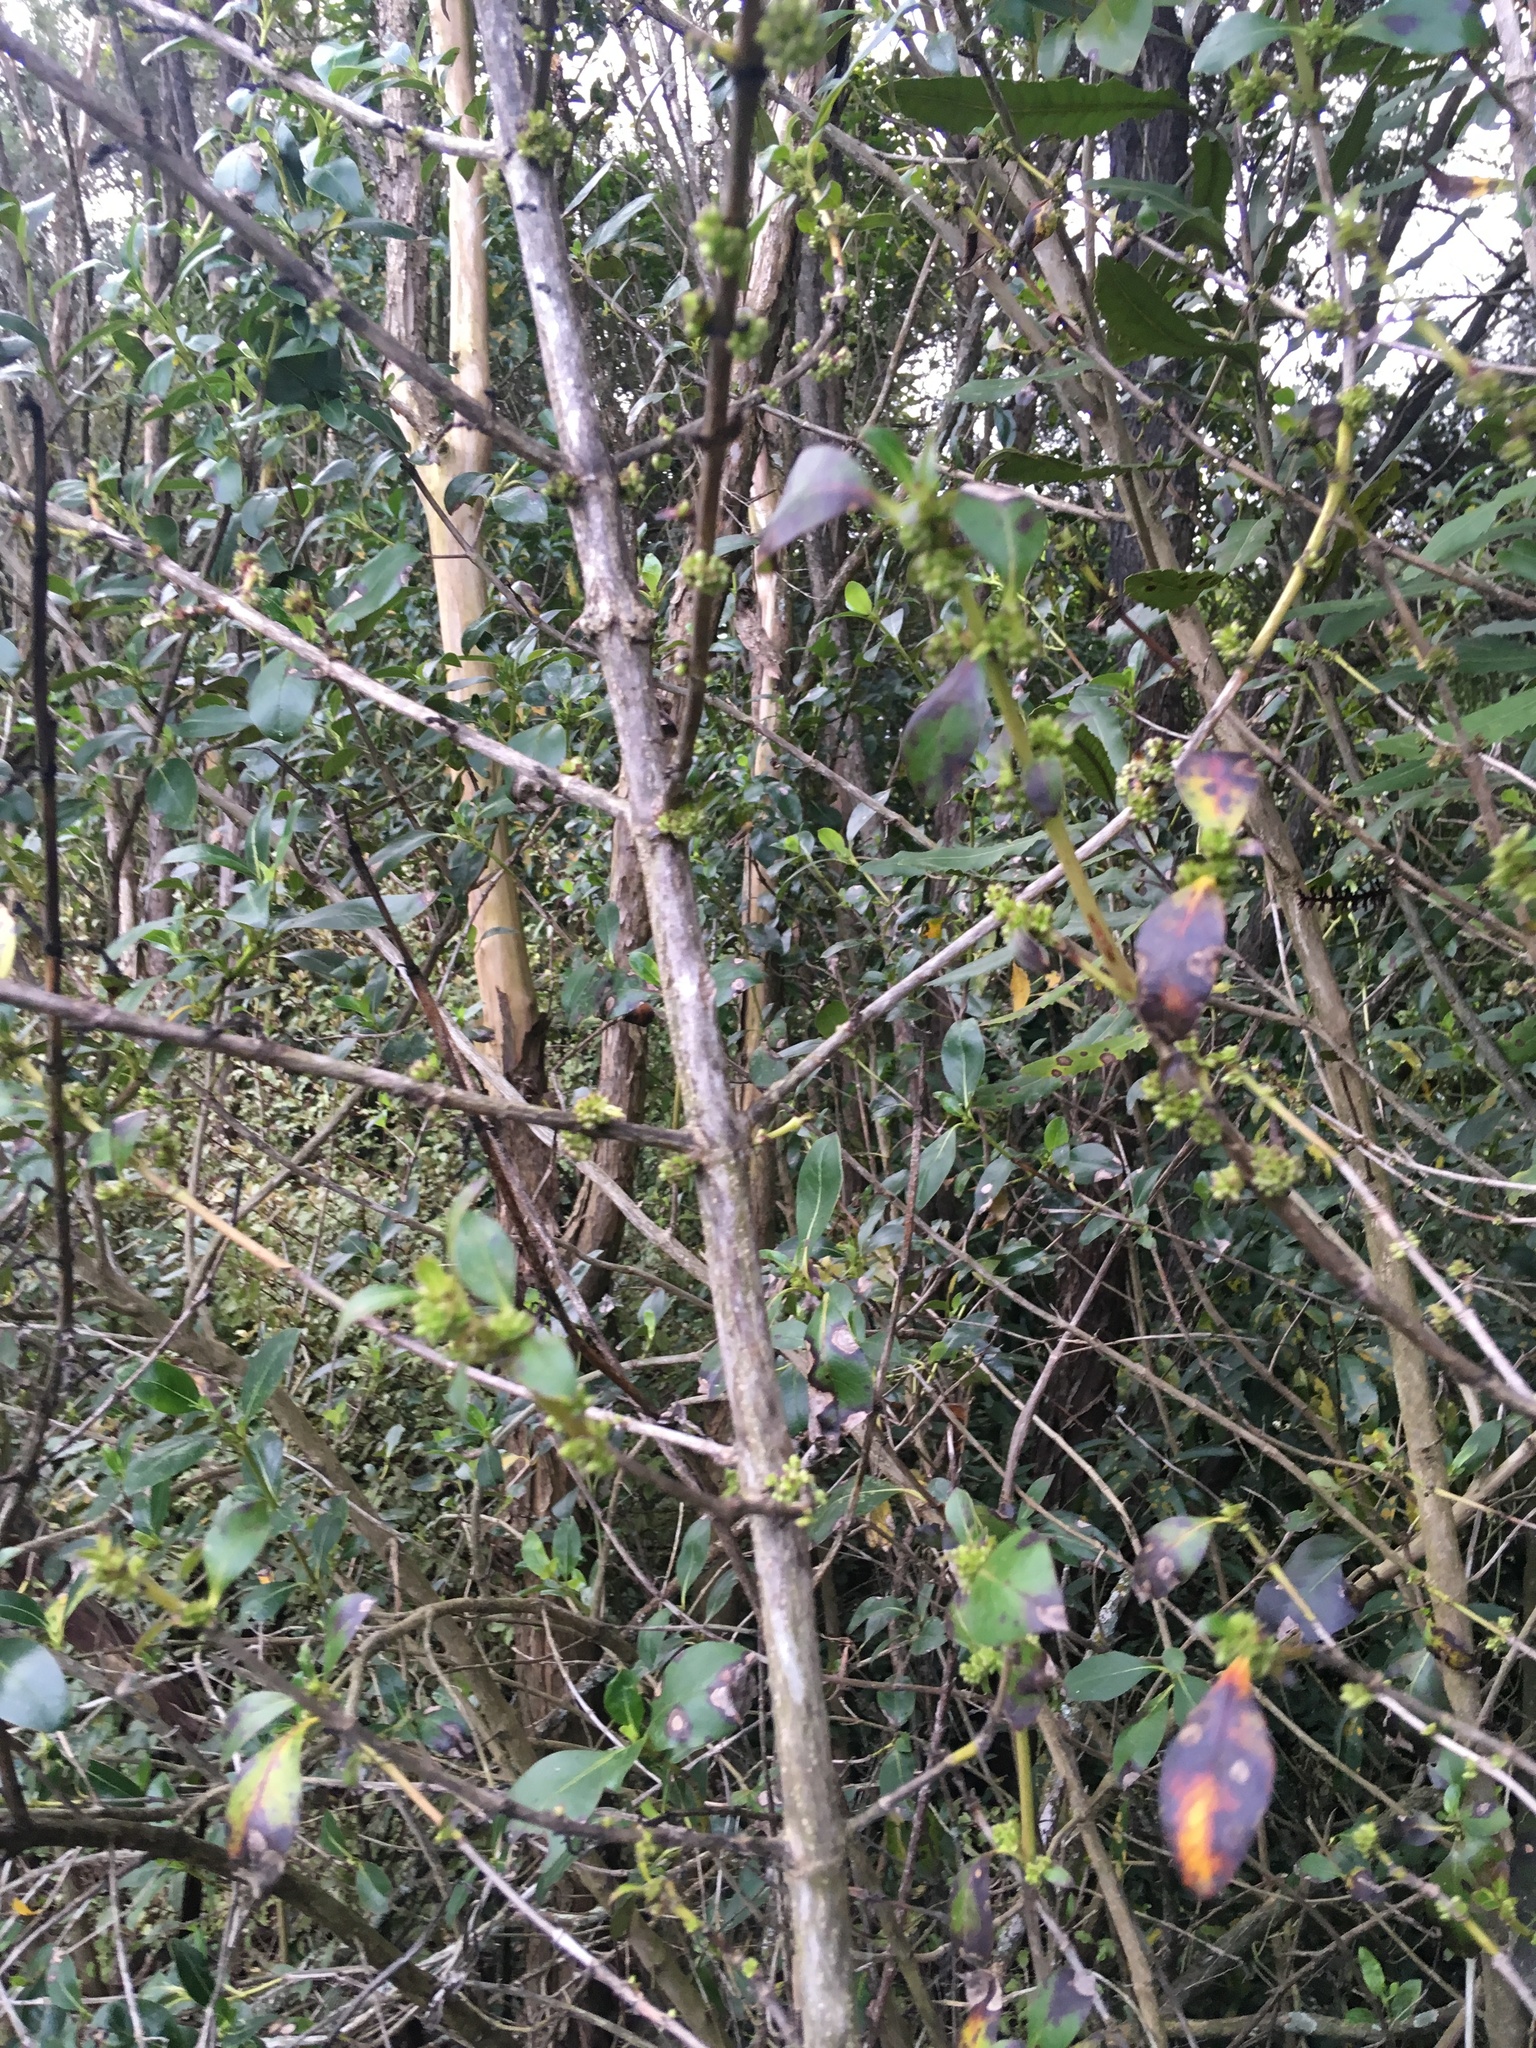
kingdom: Plantae
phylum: Tracheophyta
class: Magnoliopsida
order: Gentianales
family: Rubiaceae
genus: Coprosma
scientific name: Coprosma robusta
